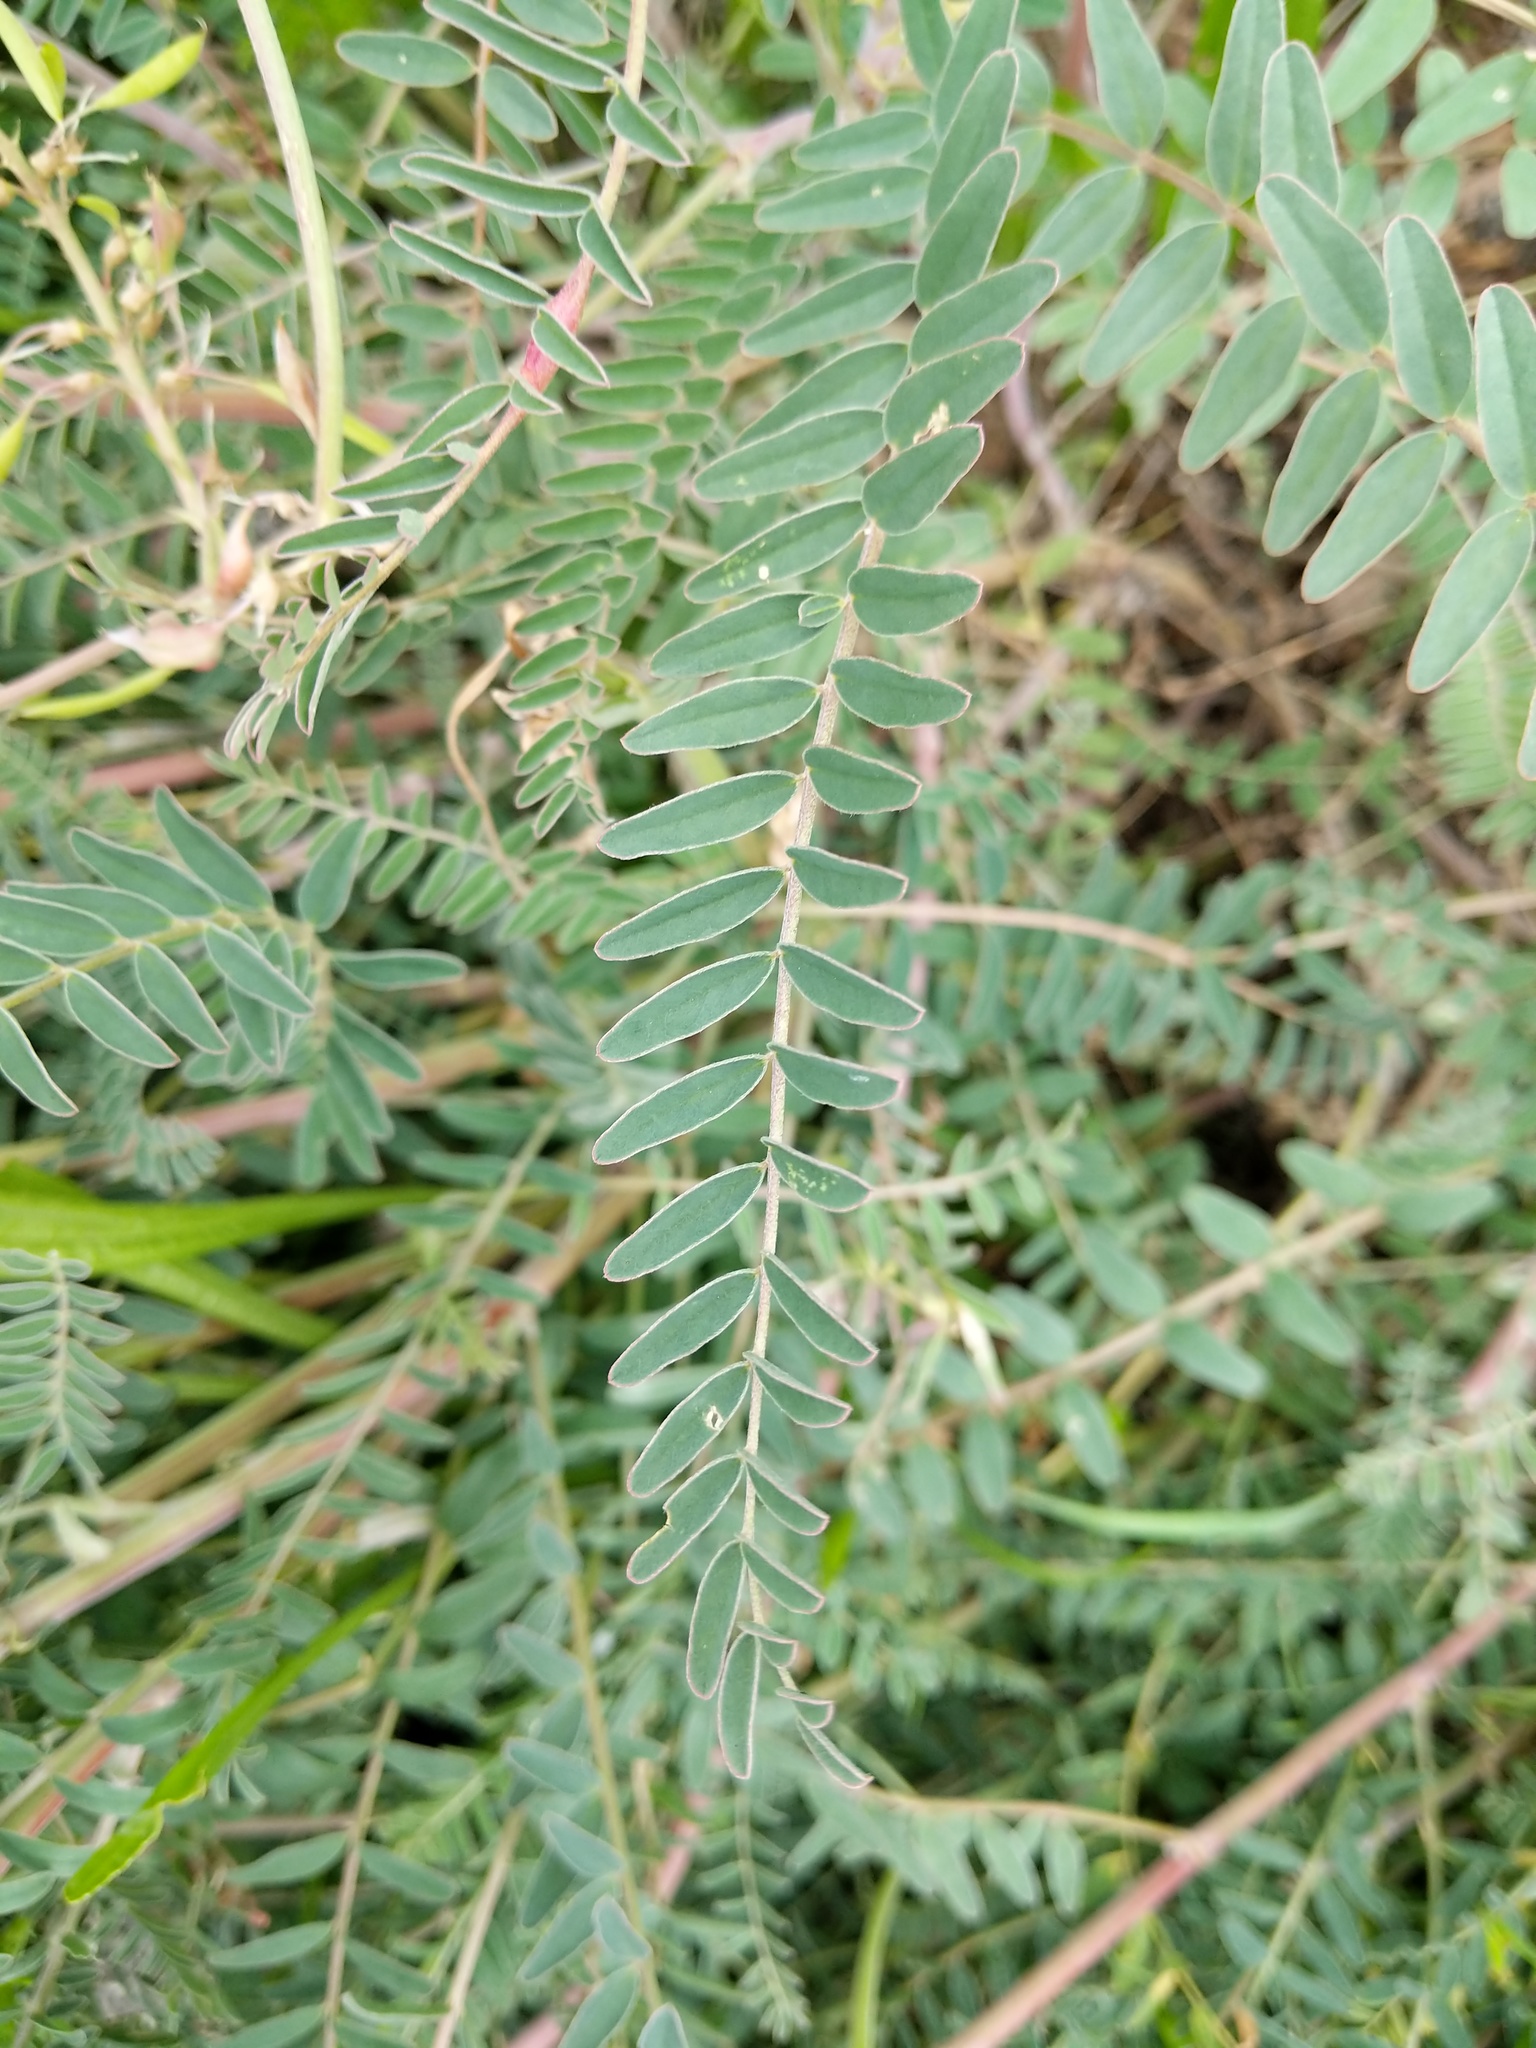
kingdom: Plantae
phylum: Tracheophyta
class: Magnoliopsida
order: Fabales
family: Fabaceae
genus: Astragalus
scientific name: Astragalus trichopodus
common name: Santa barbara milk-vetch
